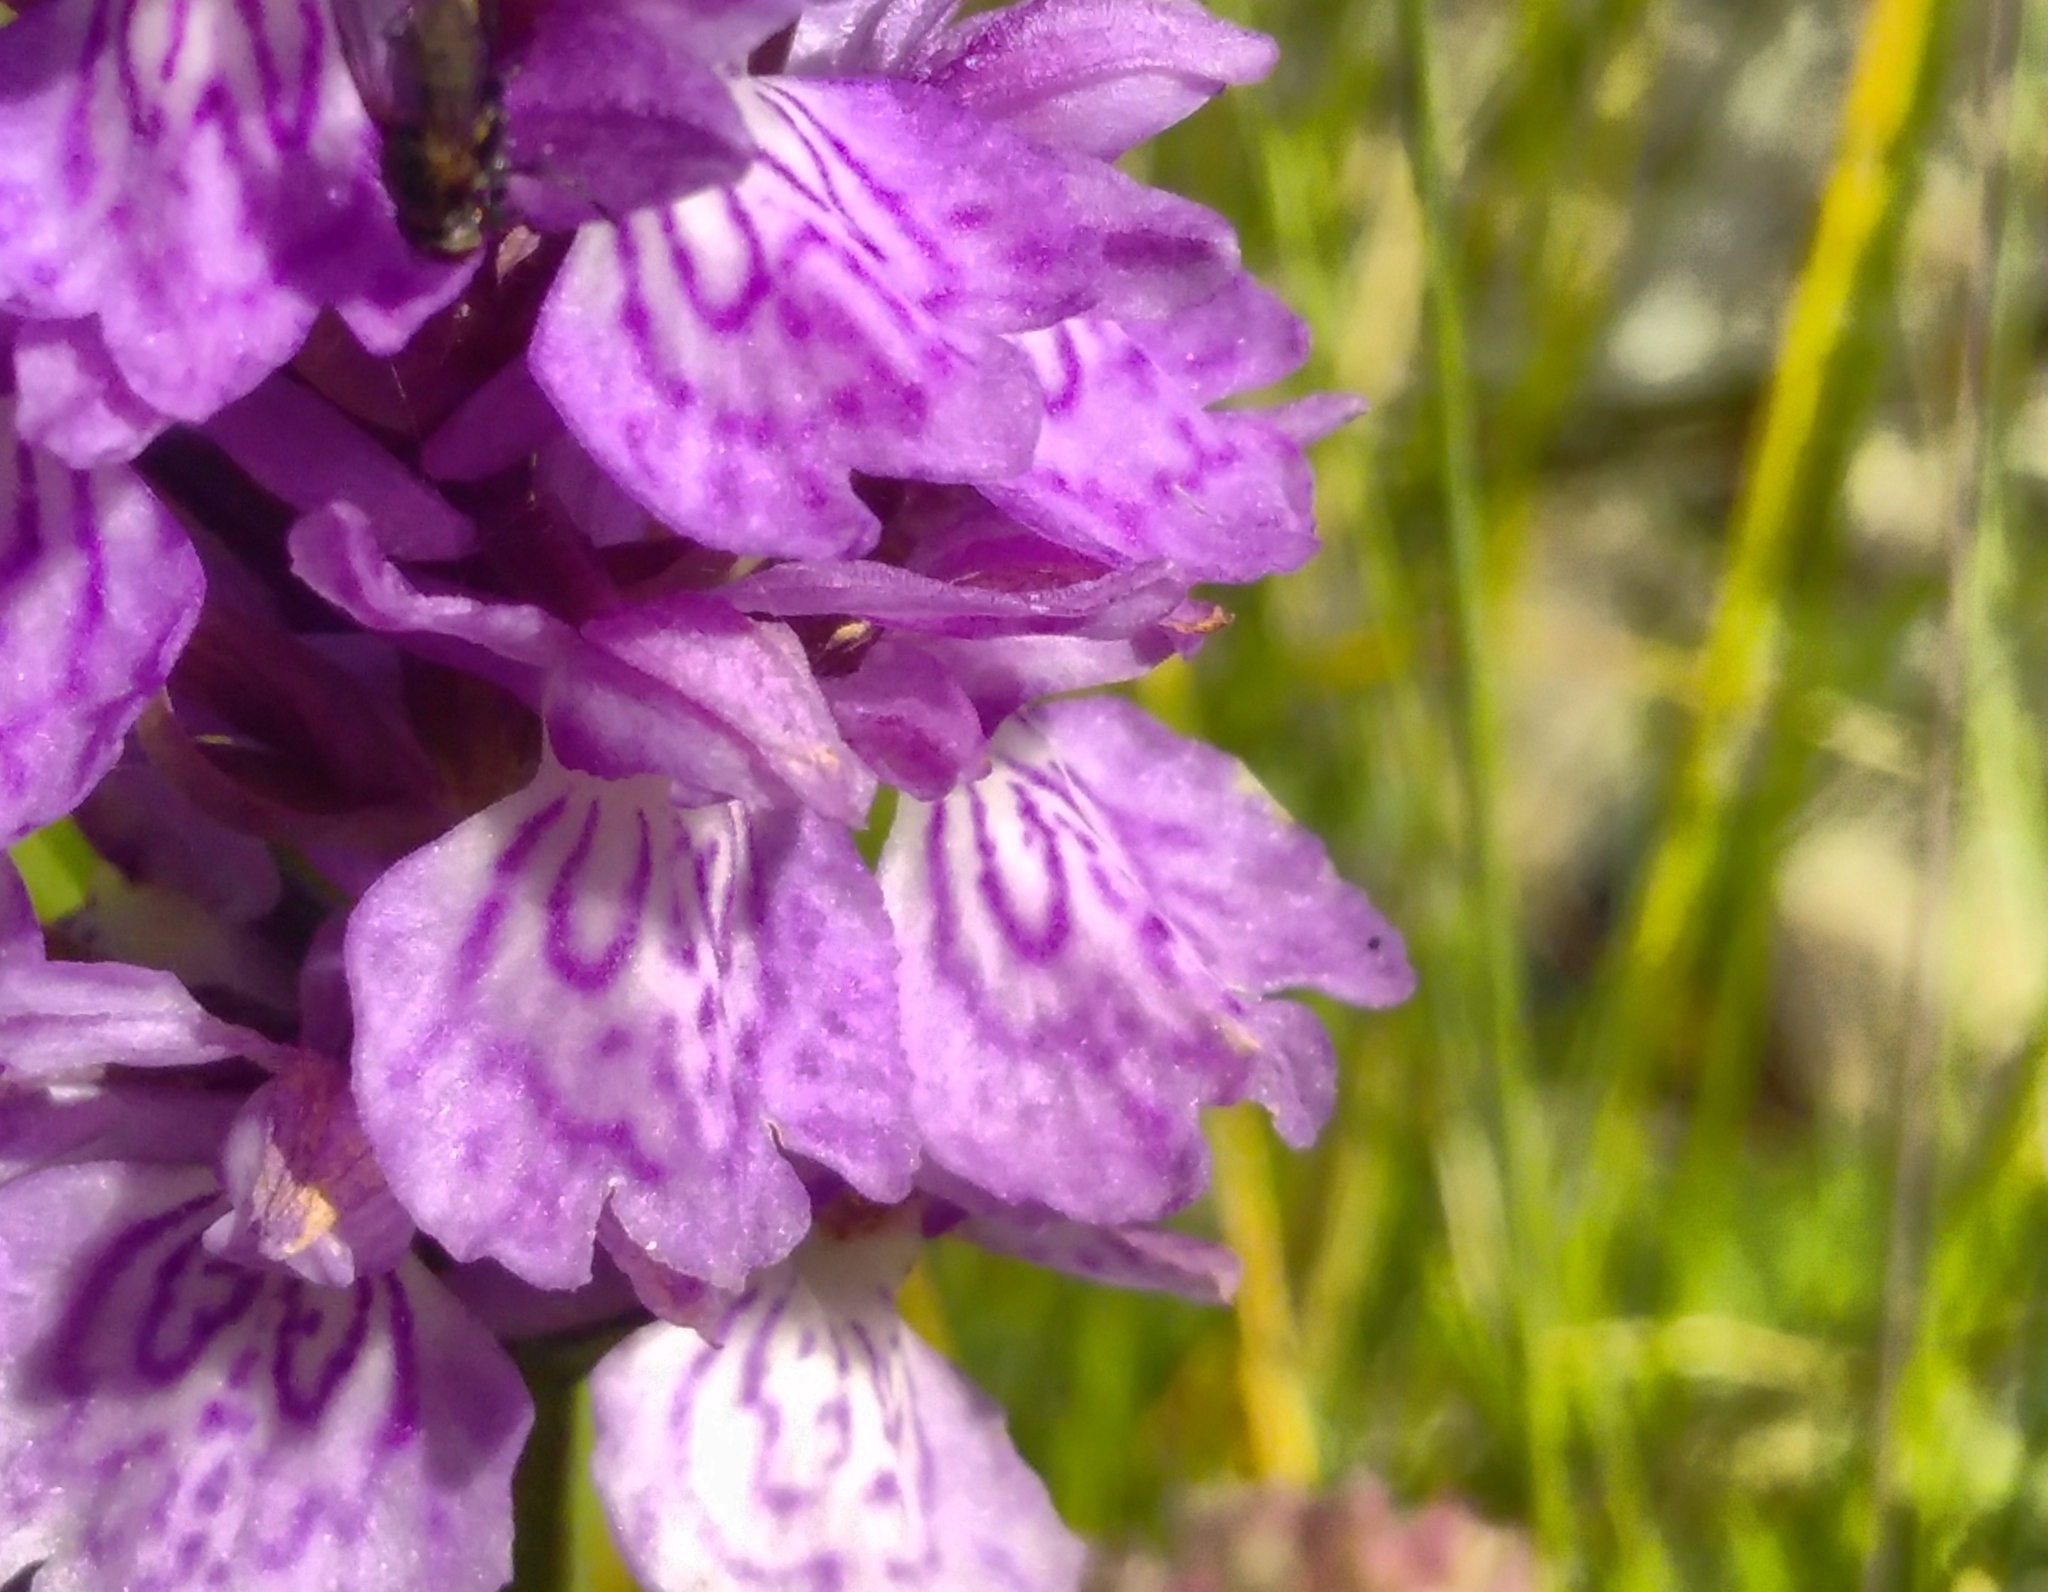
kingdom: Plantae
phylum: Tracheophyta
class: Liliopsida
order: Asparagales
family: Orchidaceae
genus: Dactylorhiza
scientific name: Dactylorhiza maculata
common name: Heath spotted-orchid
